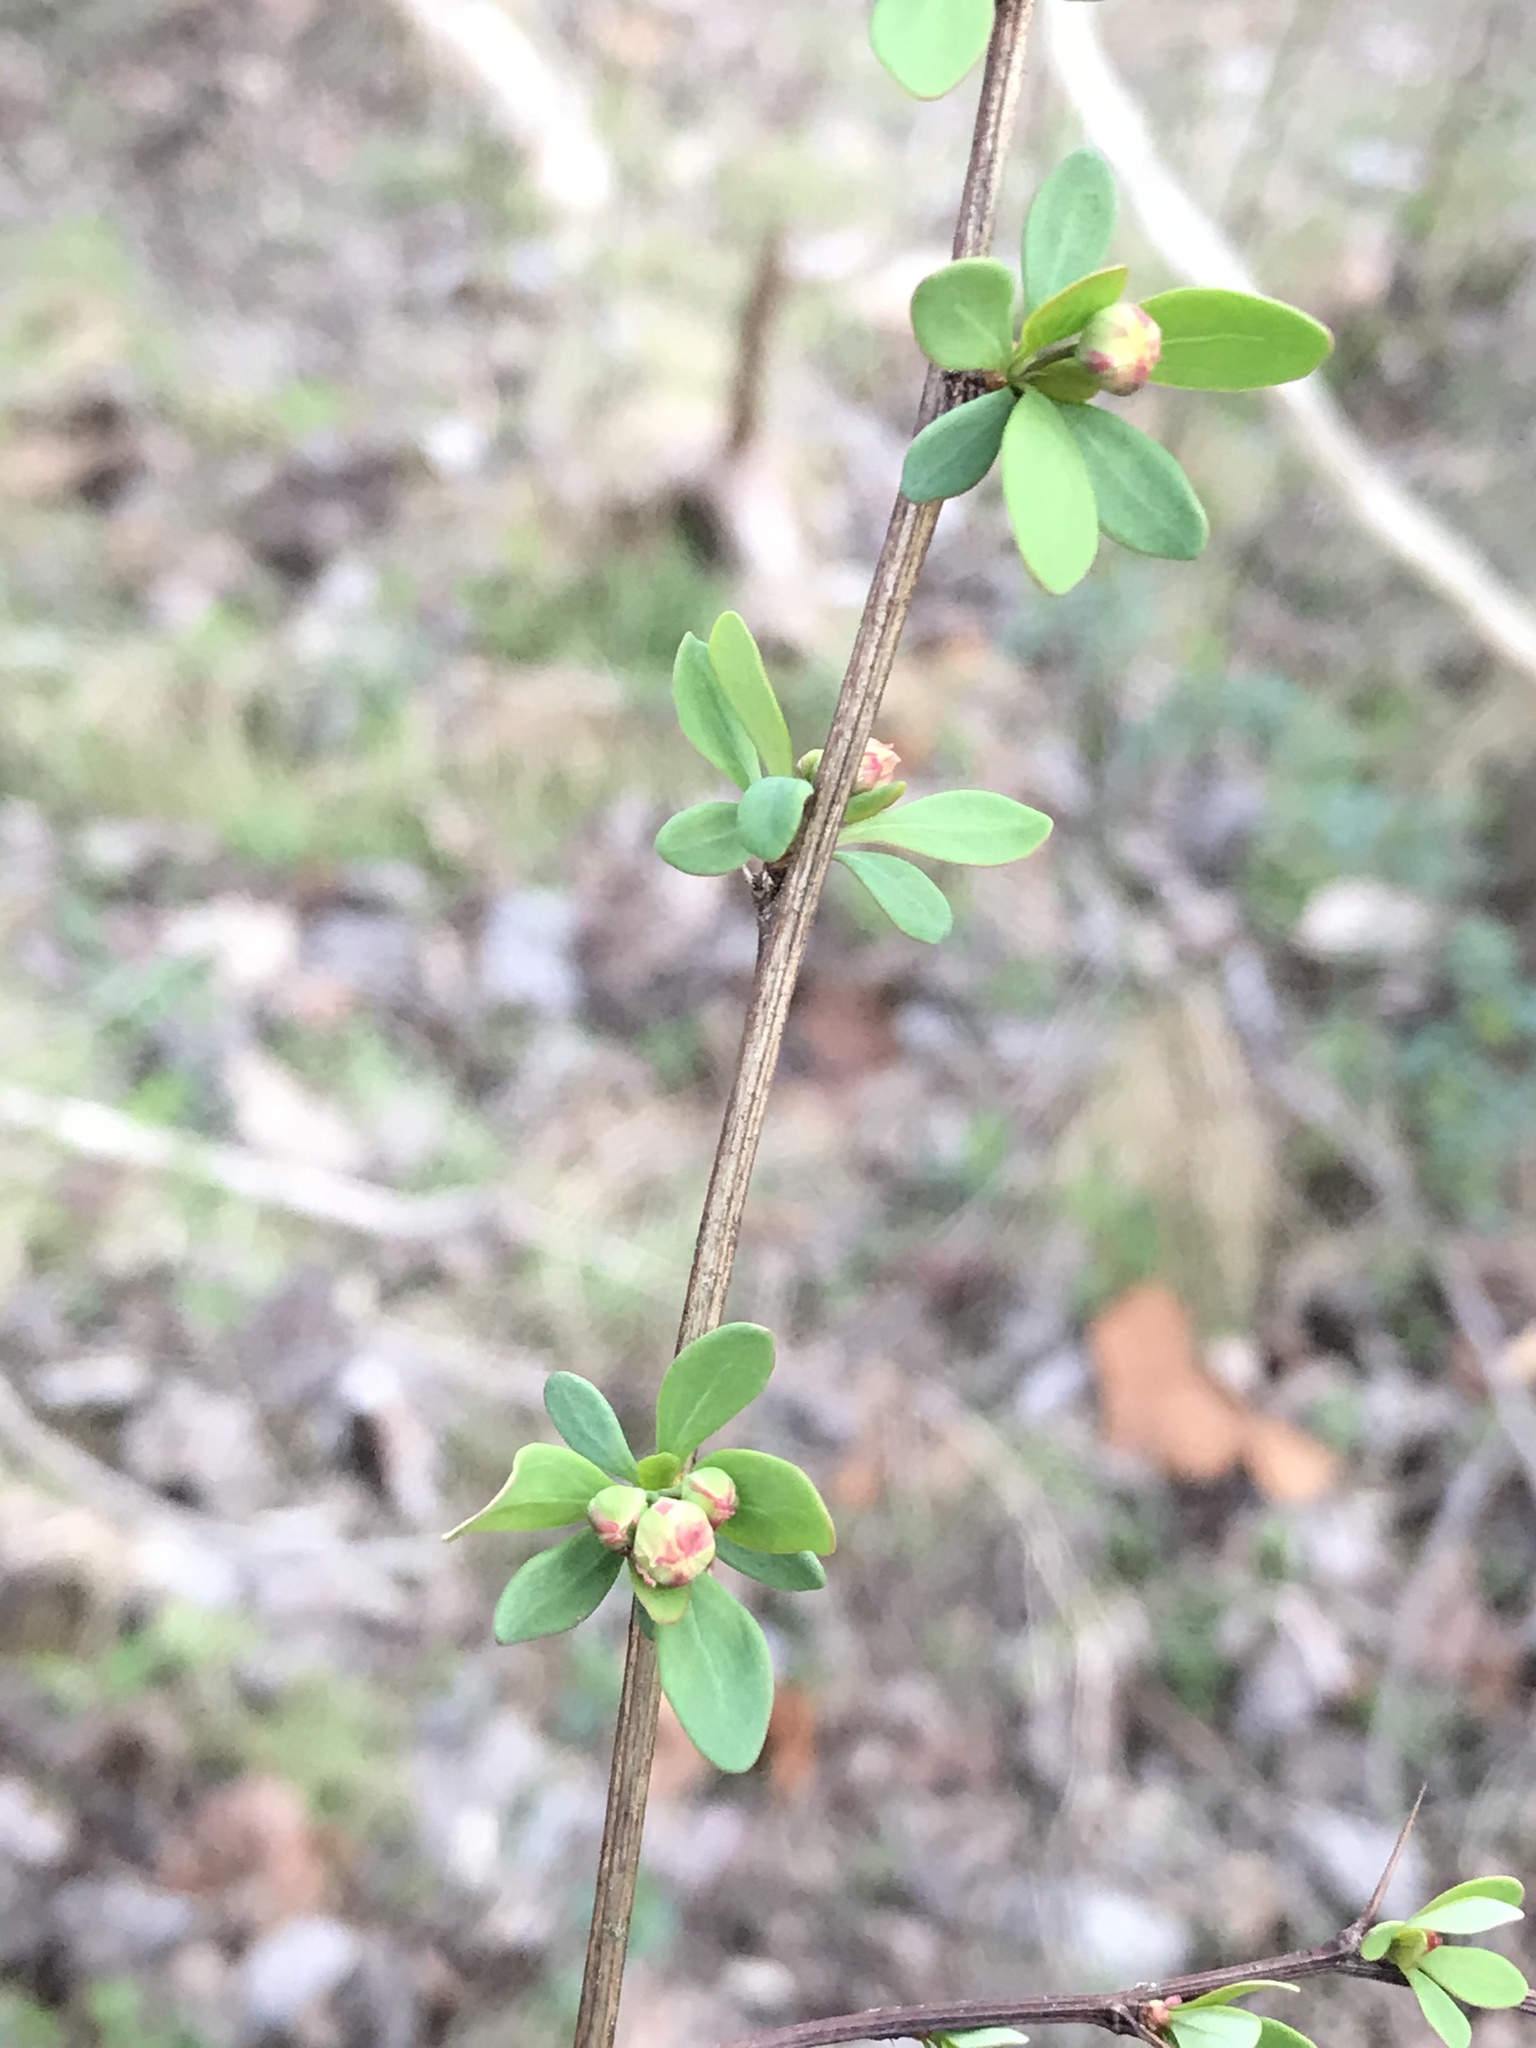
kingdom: Plantae
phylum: Tracheophyta
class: Magnoliopsida
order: Ranunculales
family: Berberidaceae
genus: Berberis
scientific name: Berberis thunbergii
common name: Japanese barberry
